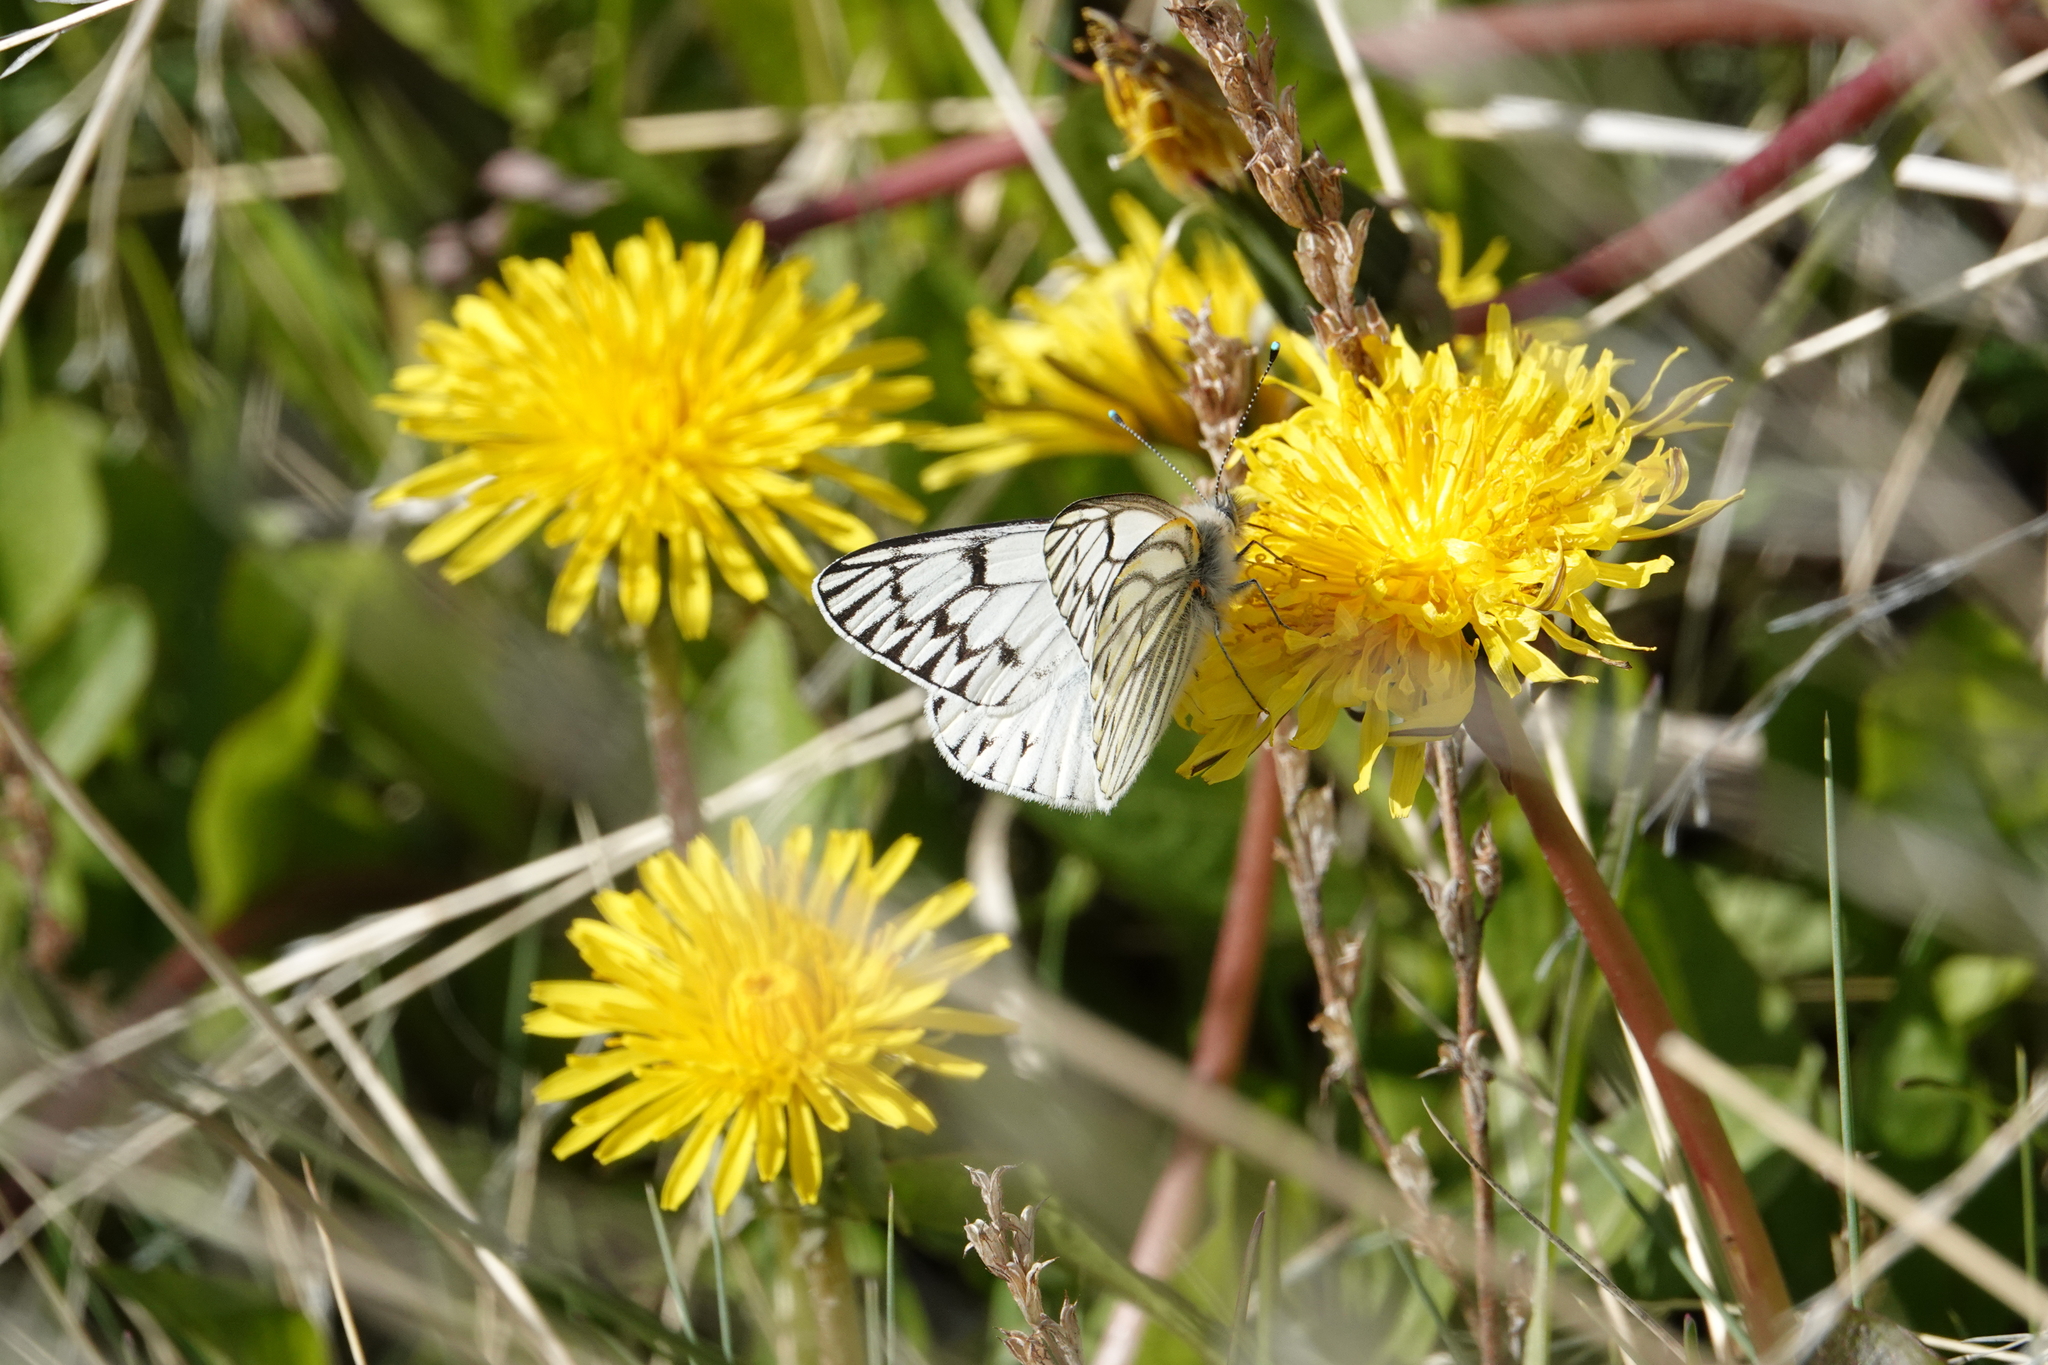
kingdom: Animalia
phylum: Arthropoda
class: Insecta
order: Lepidoptera
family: Pieridae
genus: Tatochila
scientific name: Tatochila theodice
